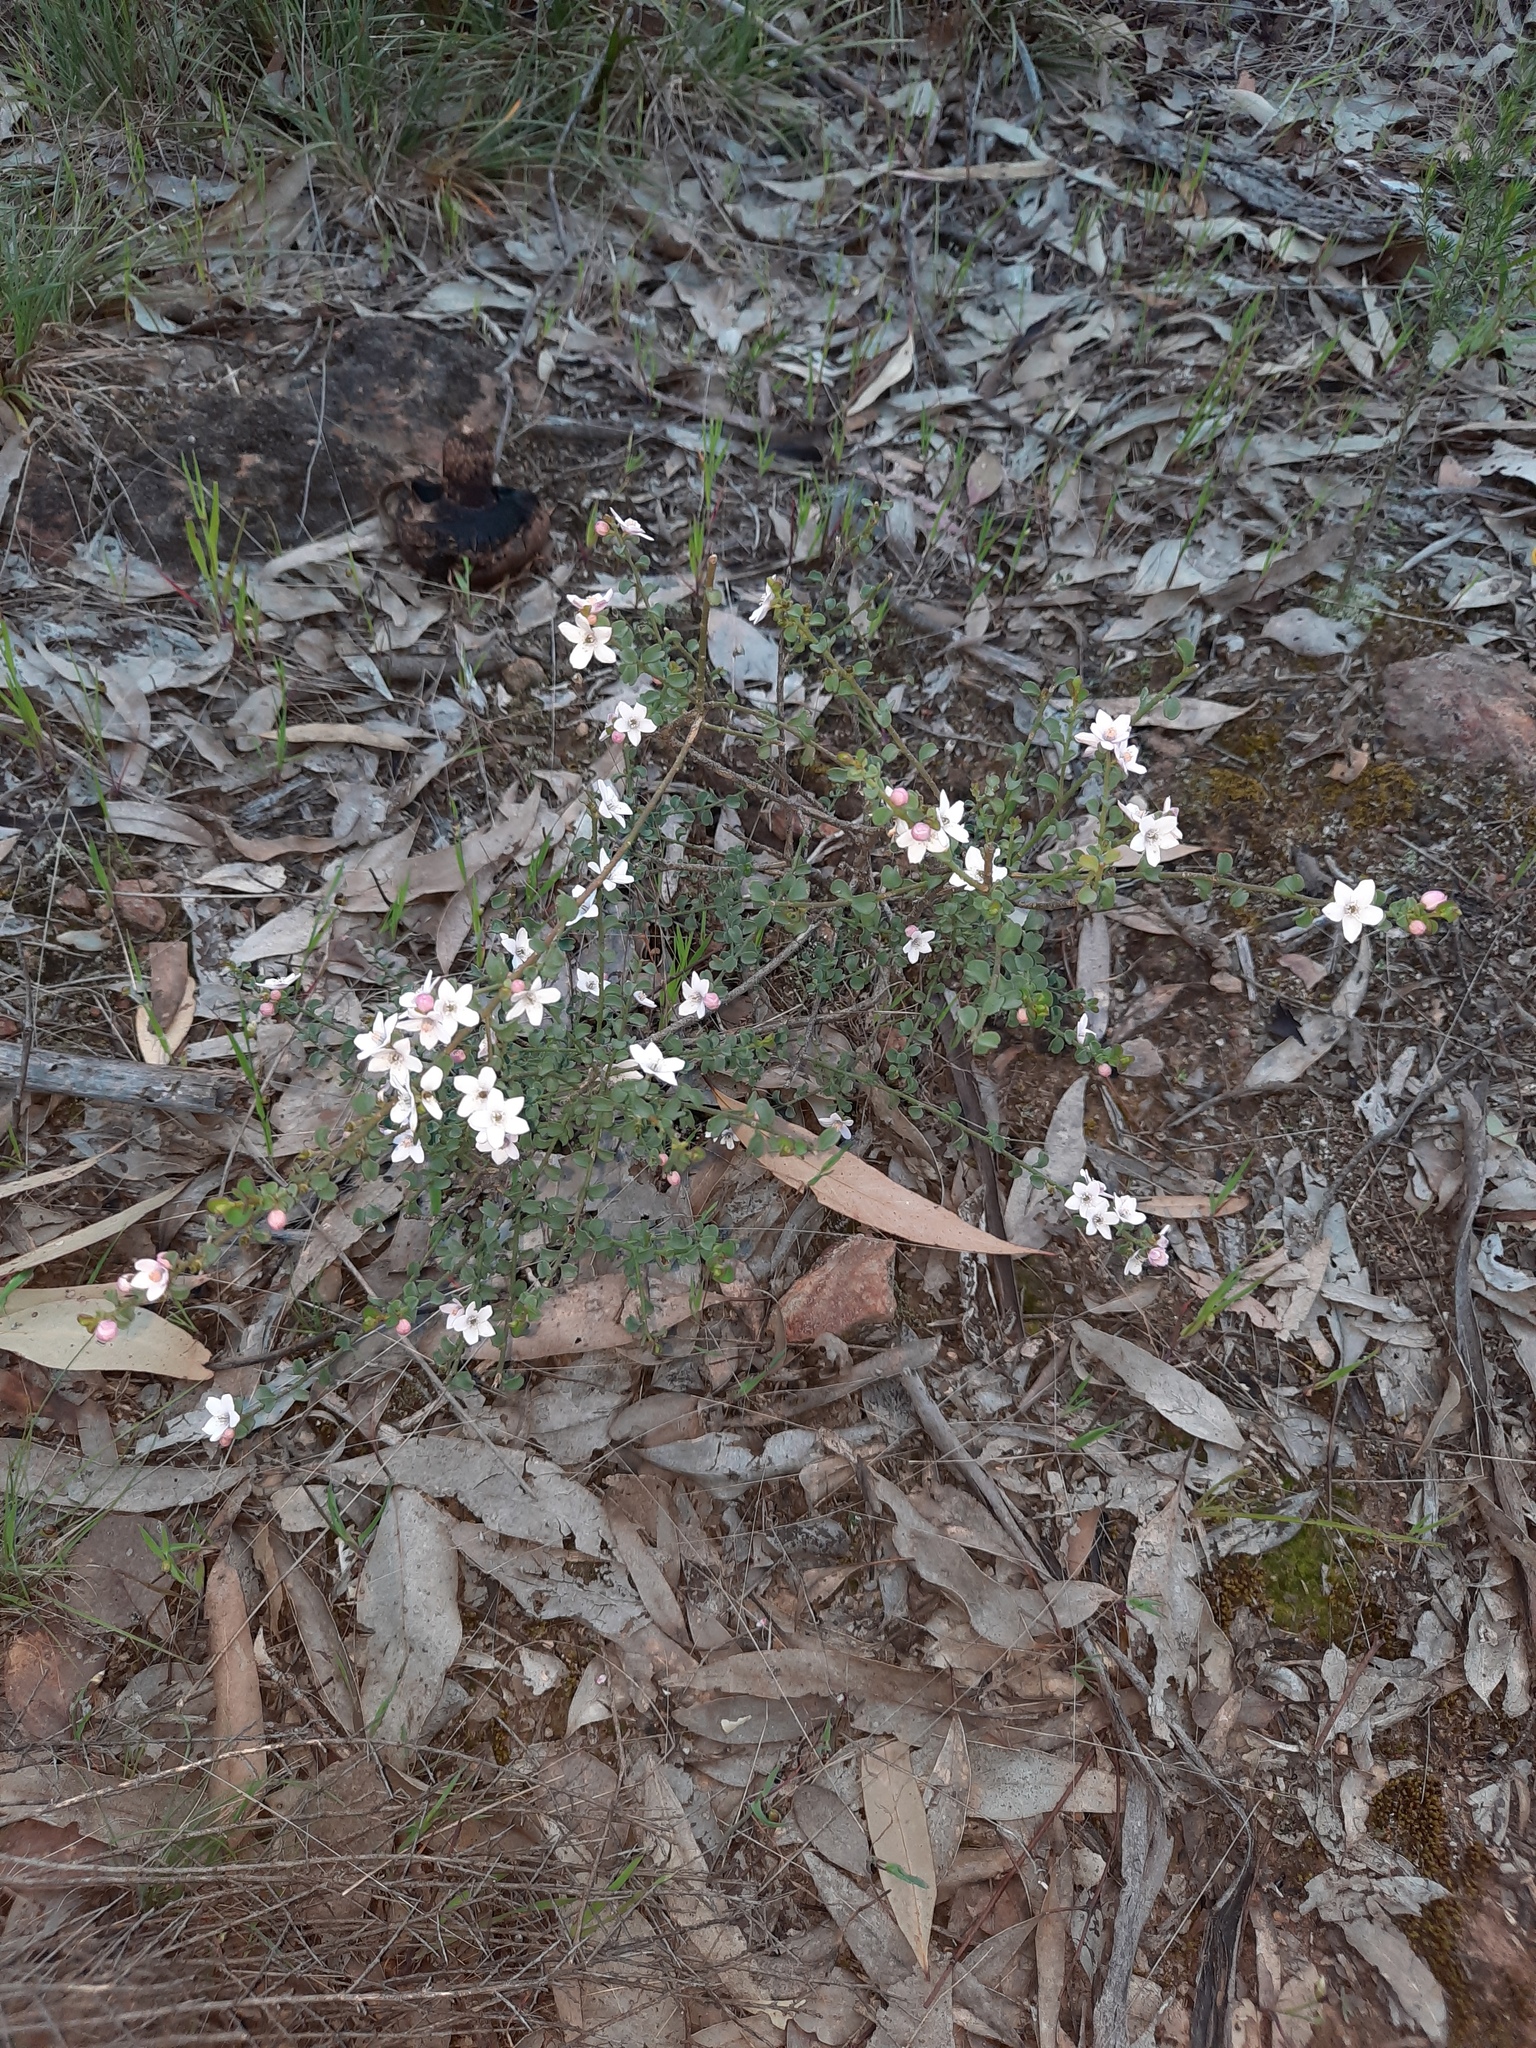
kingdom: Plantae
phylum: Tracheophyta
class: Magnoliopsida
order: Sapindales
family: Rutaceae
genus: Philotheca
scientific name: Philotheca verrucosa
